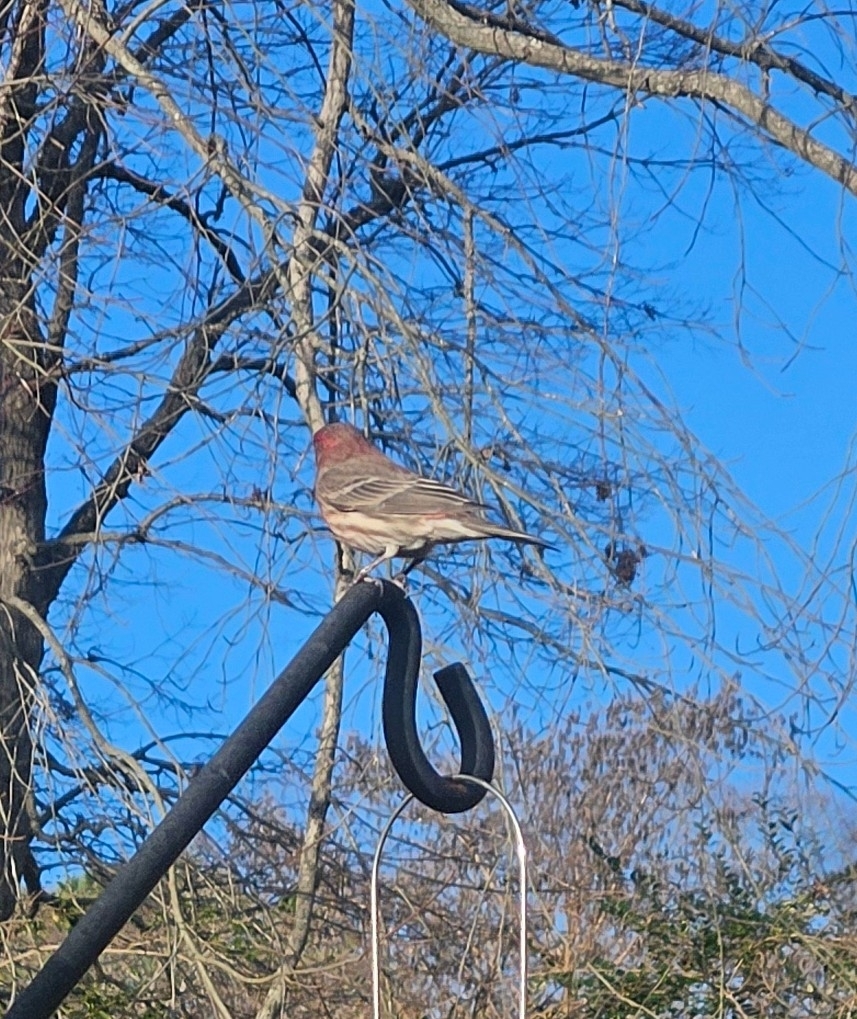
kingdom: Animalia
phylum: Chordata
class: Aves
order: Passeriformes
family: Fringillidae
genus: Haemorhous
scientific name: Haemorhous mexicanus
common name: House finch
